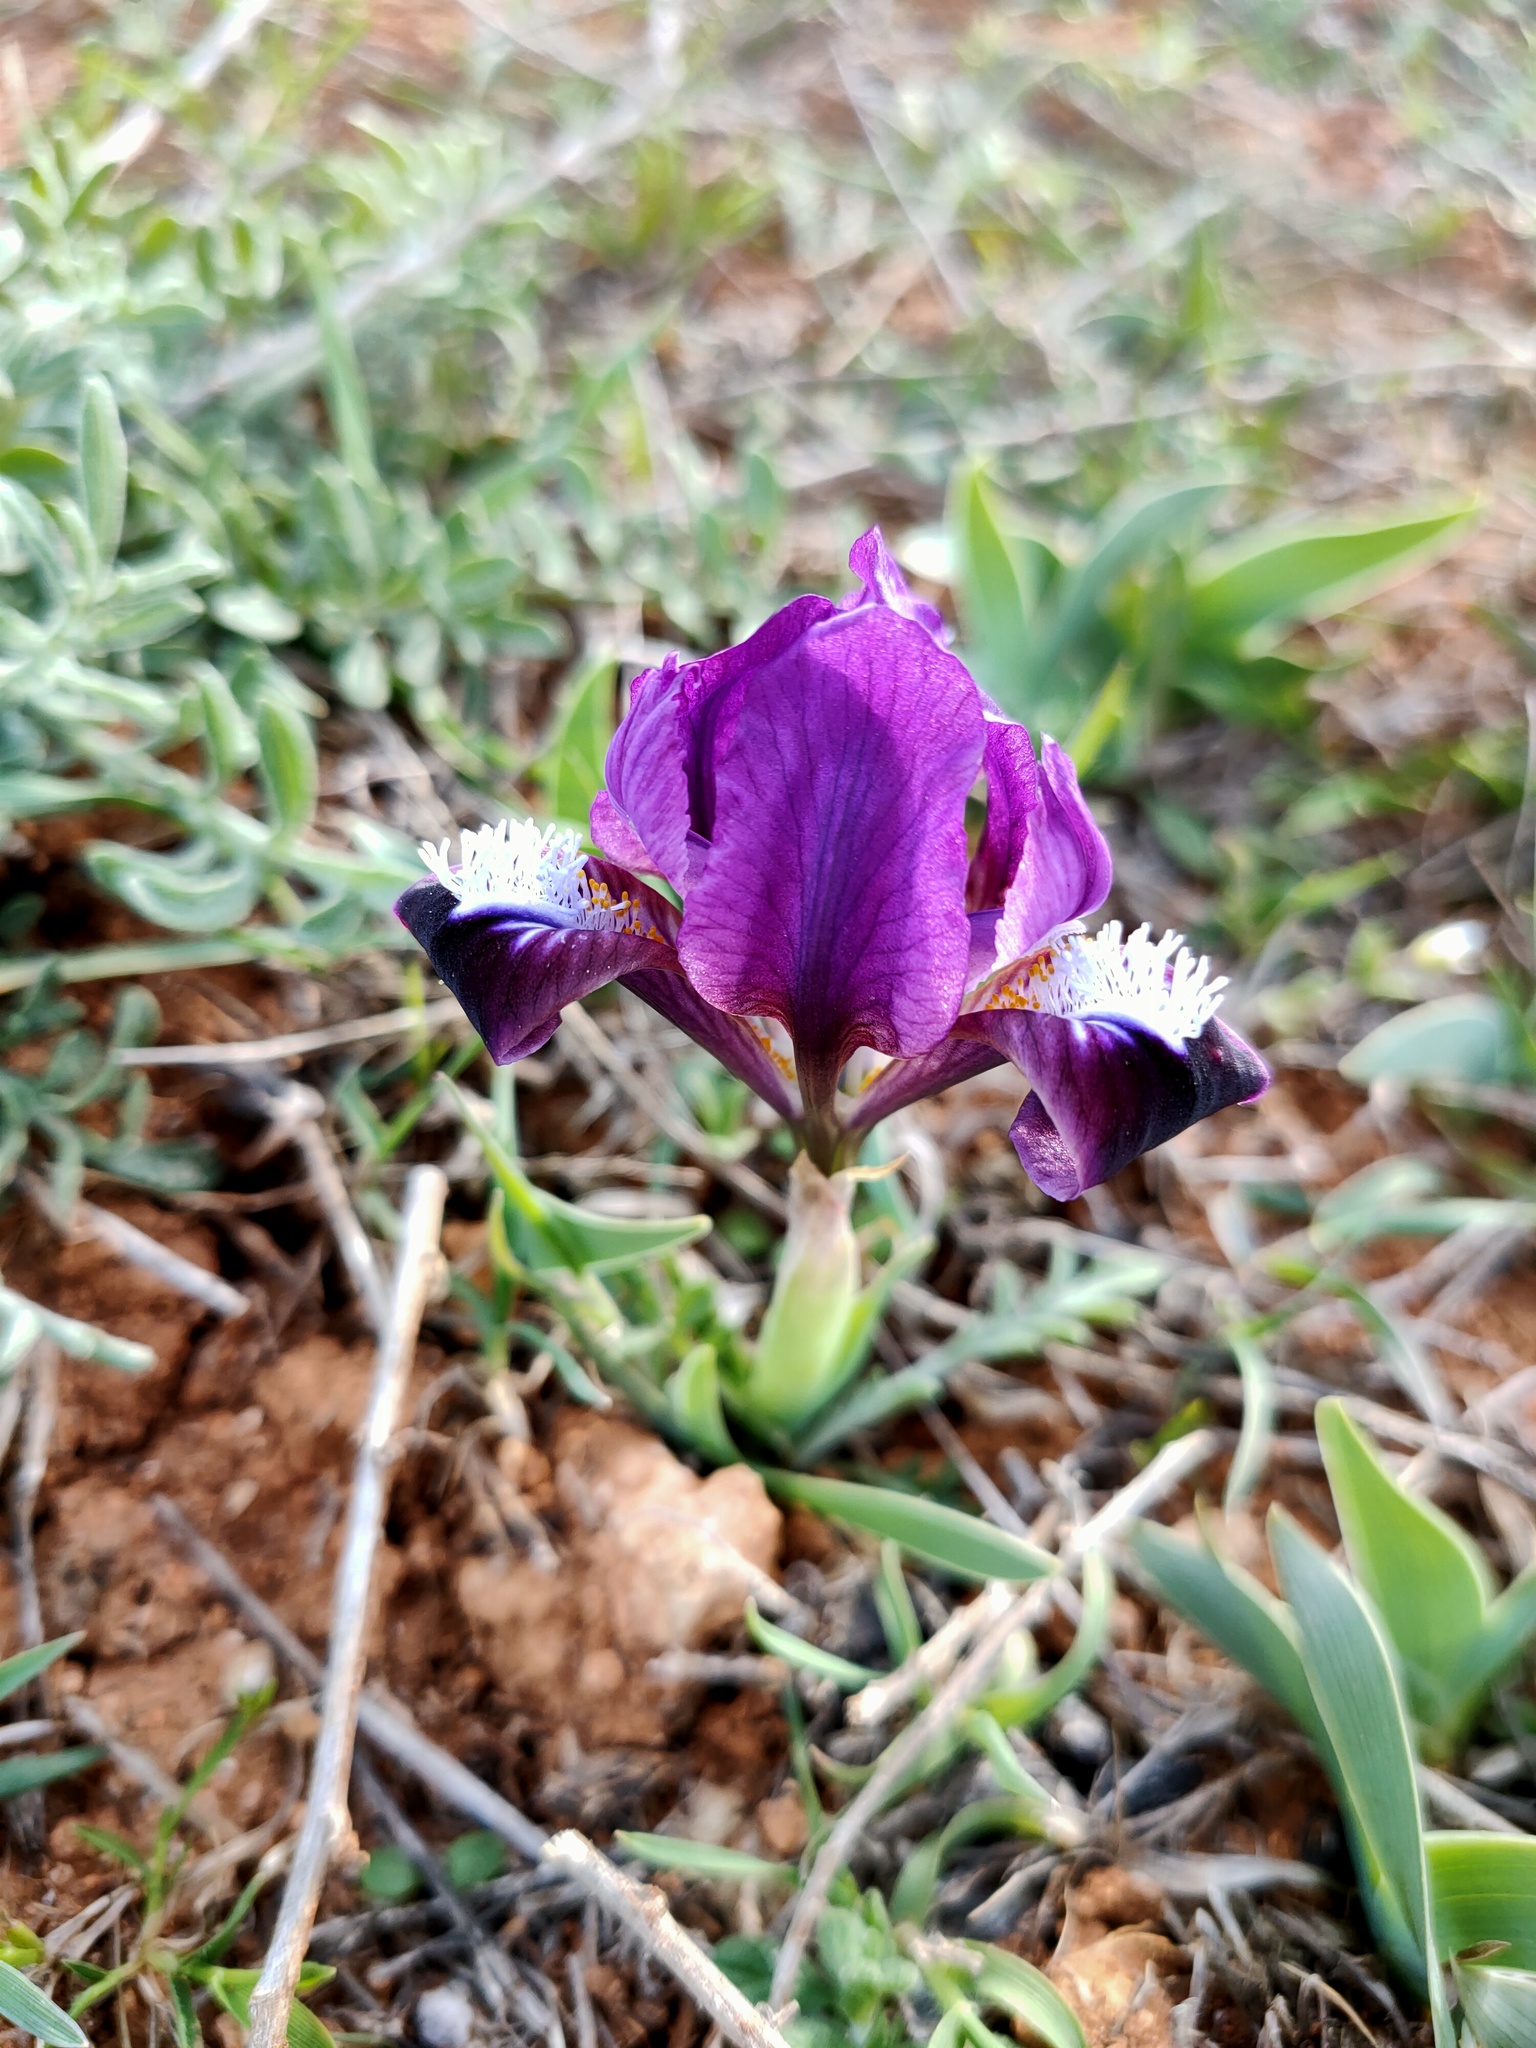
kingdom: Plantae
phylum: Tracheophyta
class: Liliopsida
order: Asparagales
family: Iridaceae
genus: Iris
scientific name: Iris pumila
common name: Dwarf iris
